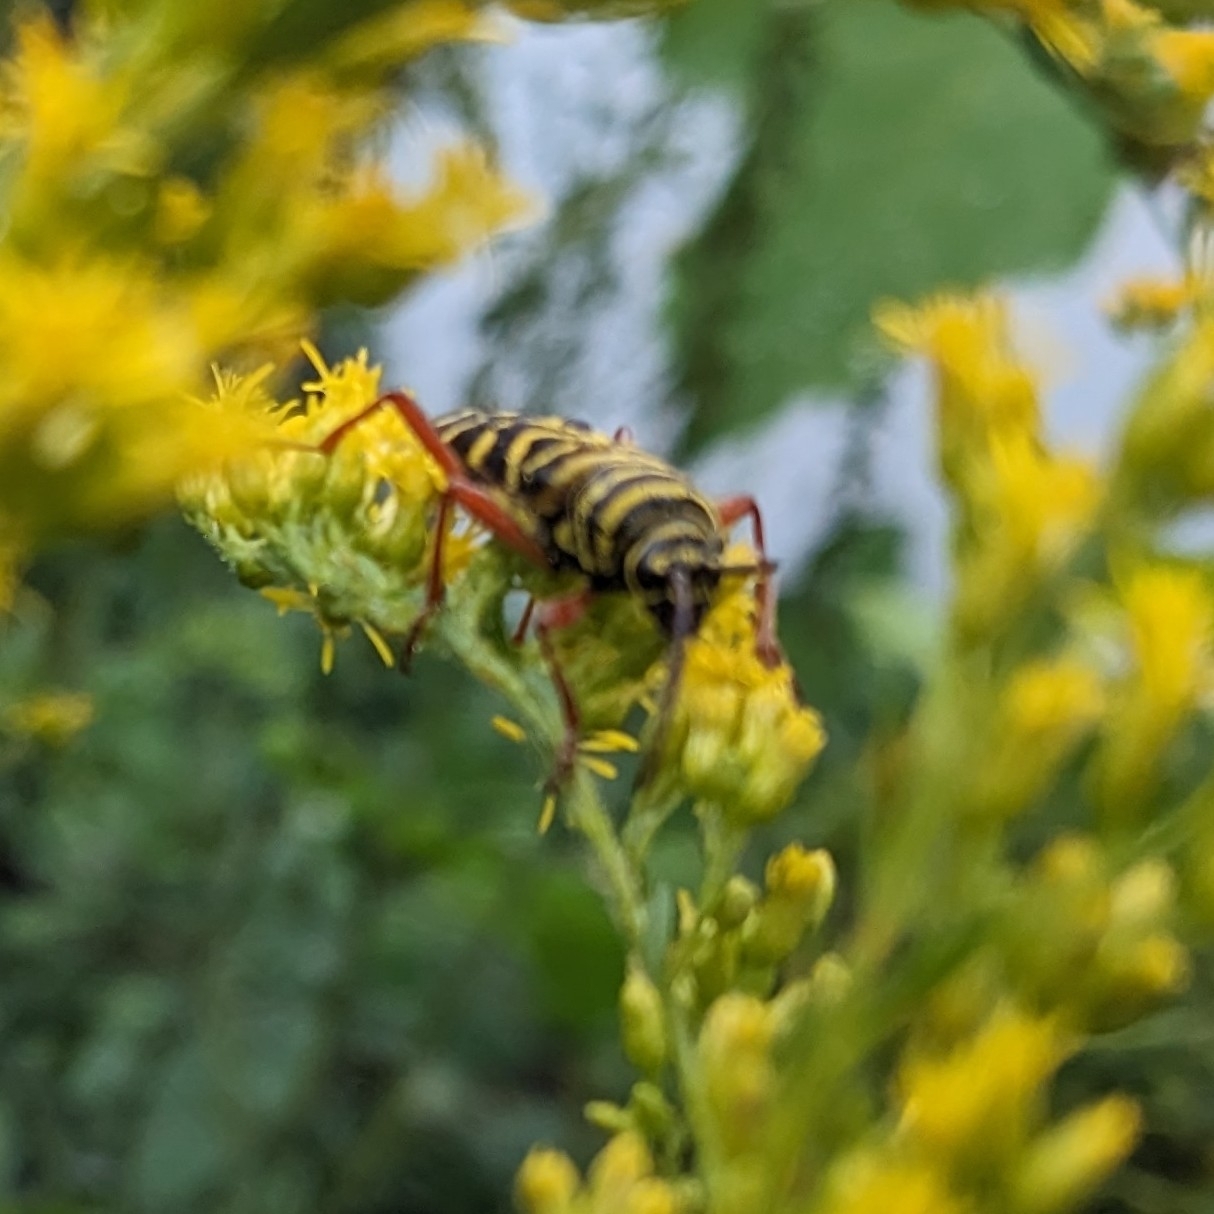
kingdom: Animalia
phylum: Arthropoda
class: Insecta
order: Coleoptera
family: Cerambycidae
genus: Megacyllene
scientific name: Megacyllene robiniae
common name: Locust borer
